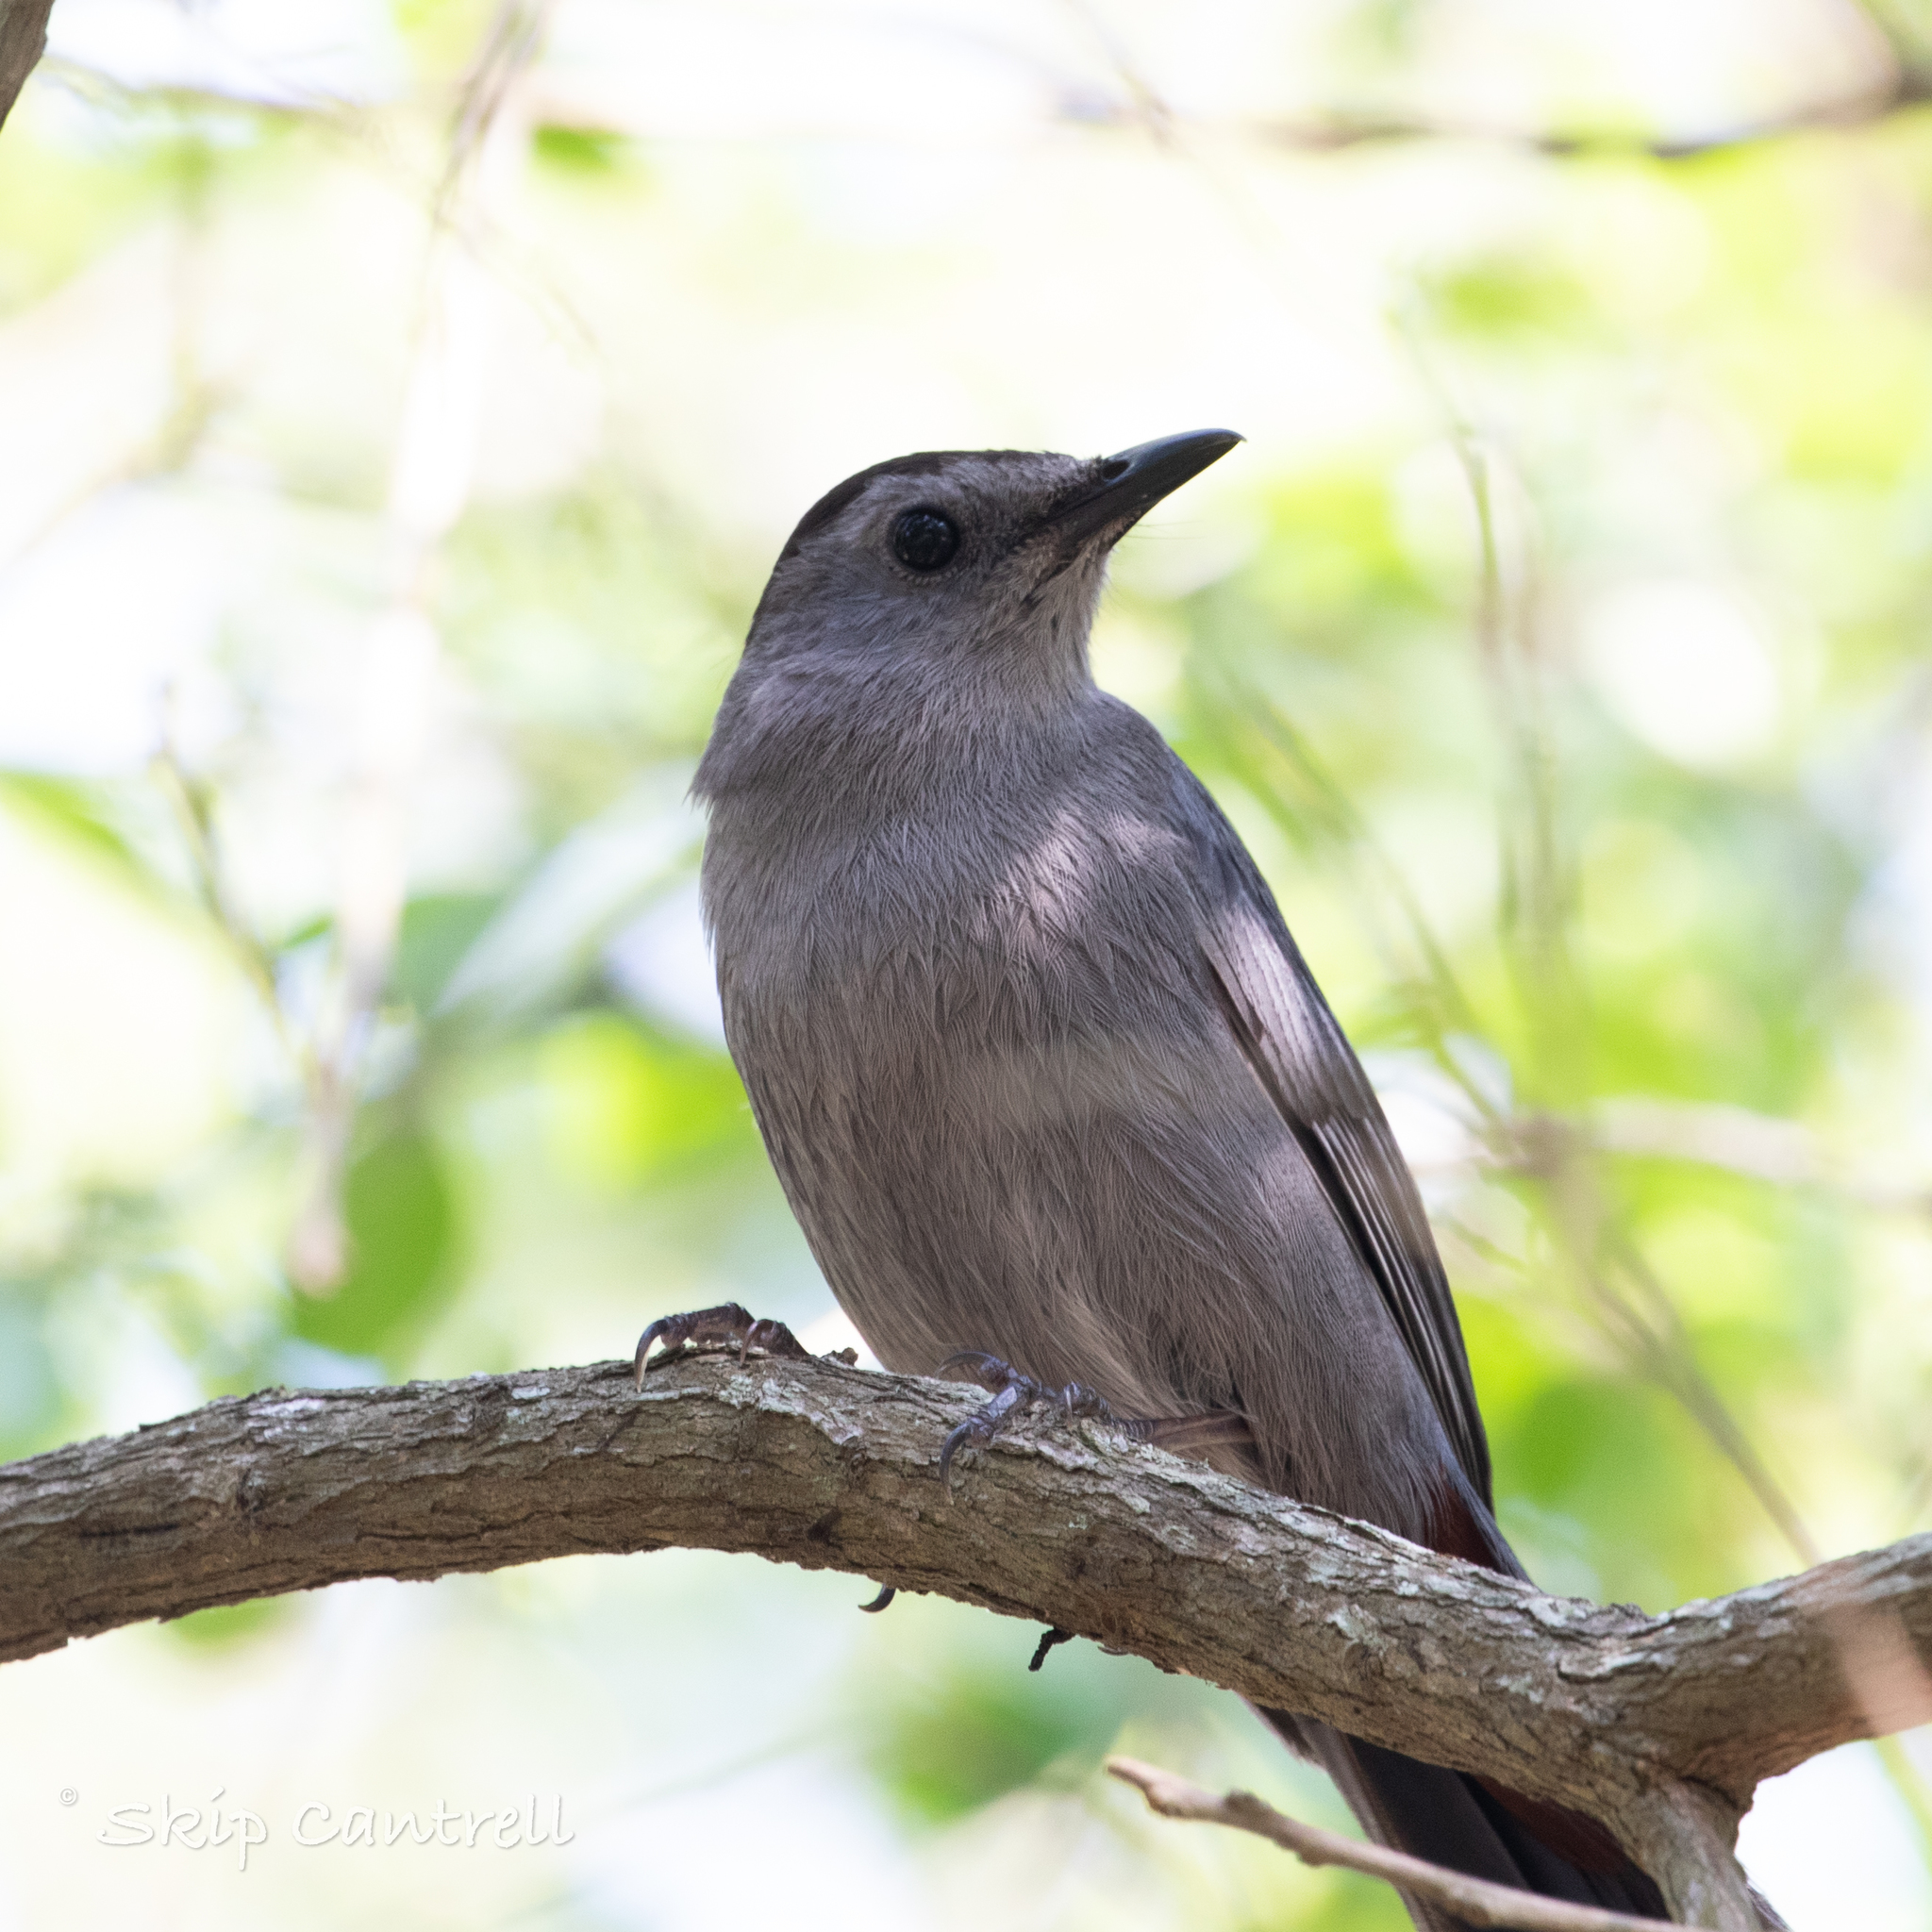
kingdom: Animalia
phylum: Chordata
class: Aves
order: Passeriformes
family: Mimidae
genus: Dumetella
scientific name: Dumetella carolinensis
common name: Gray catbird
